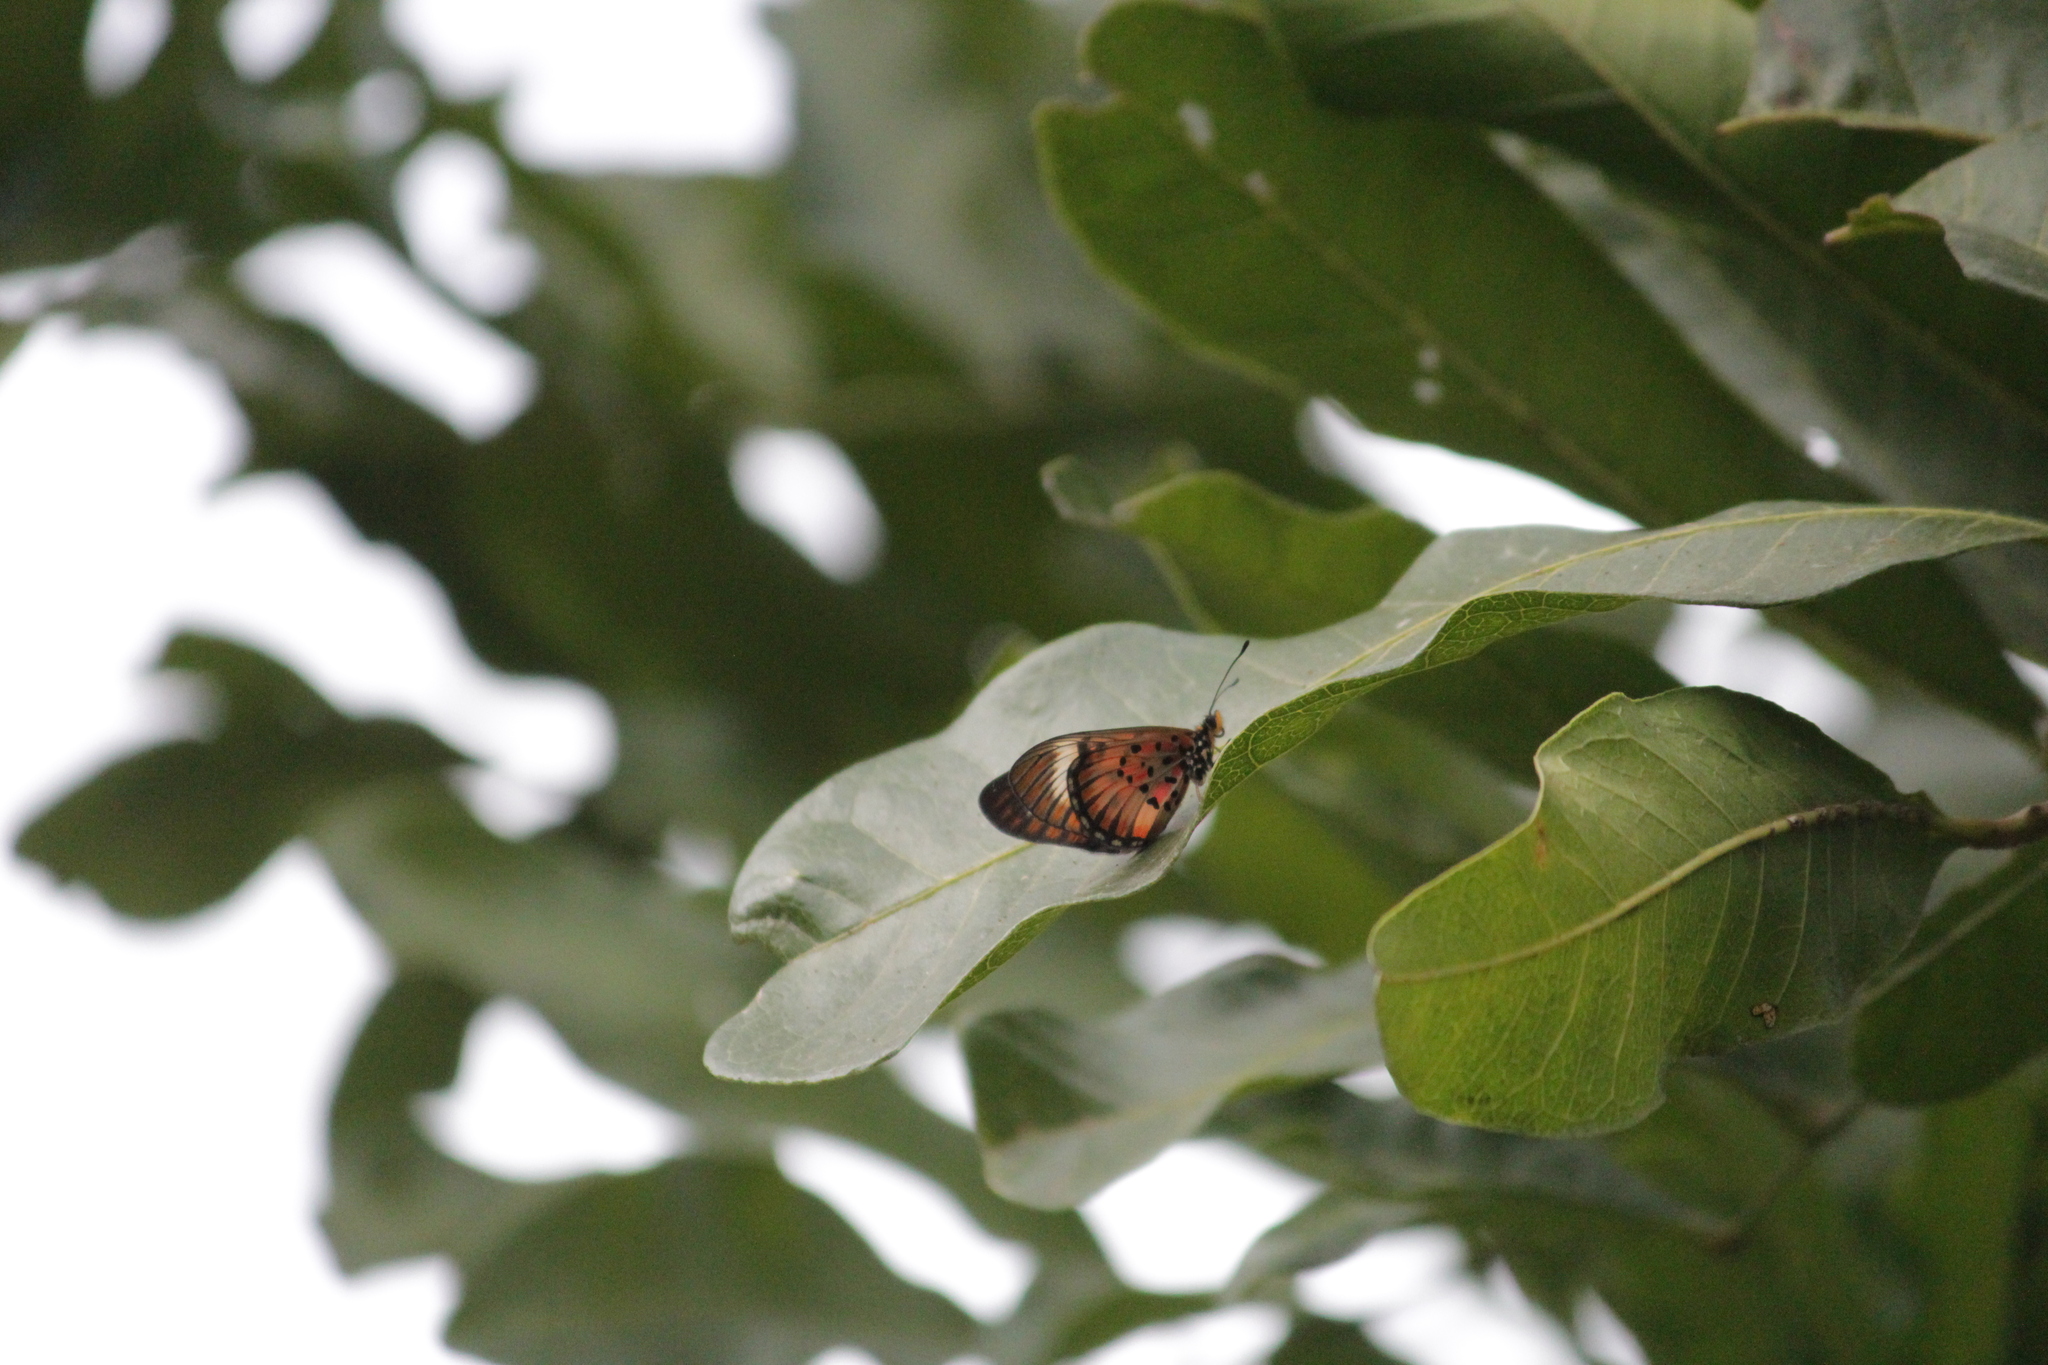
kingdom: Animalia
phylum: Arthropoda
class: Insecta
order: Lepidoptera
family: Nymphalidae
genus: Rubraea
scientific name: Rubraea
